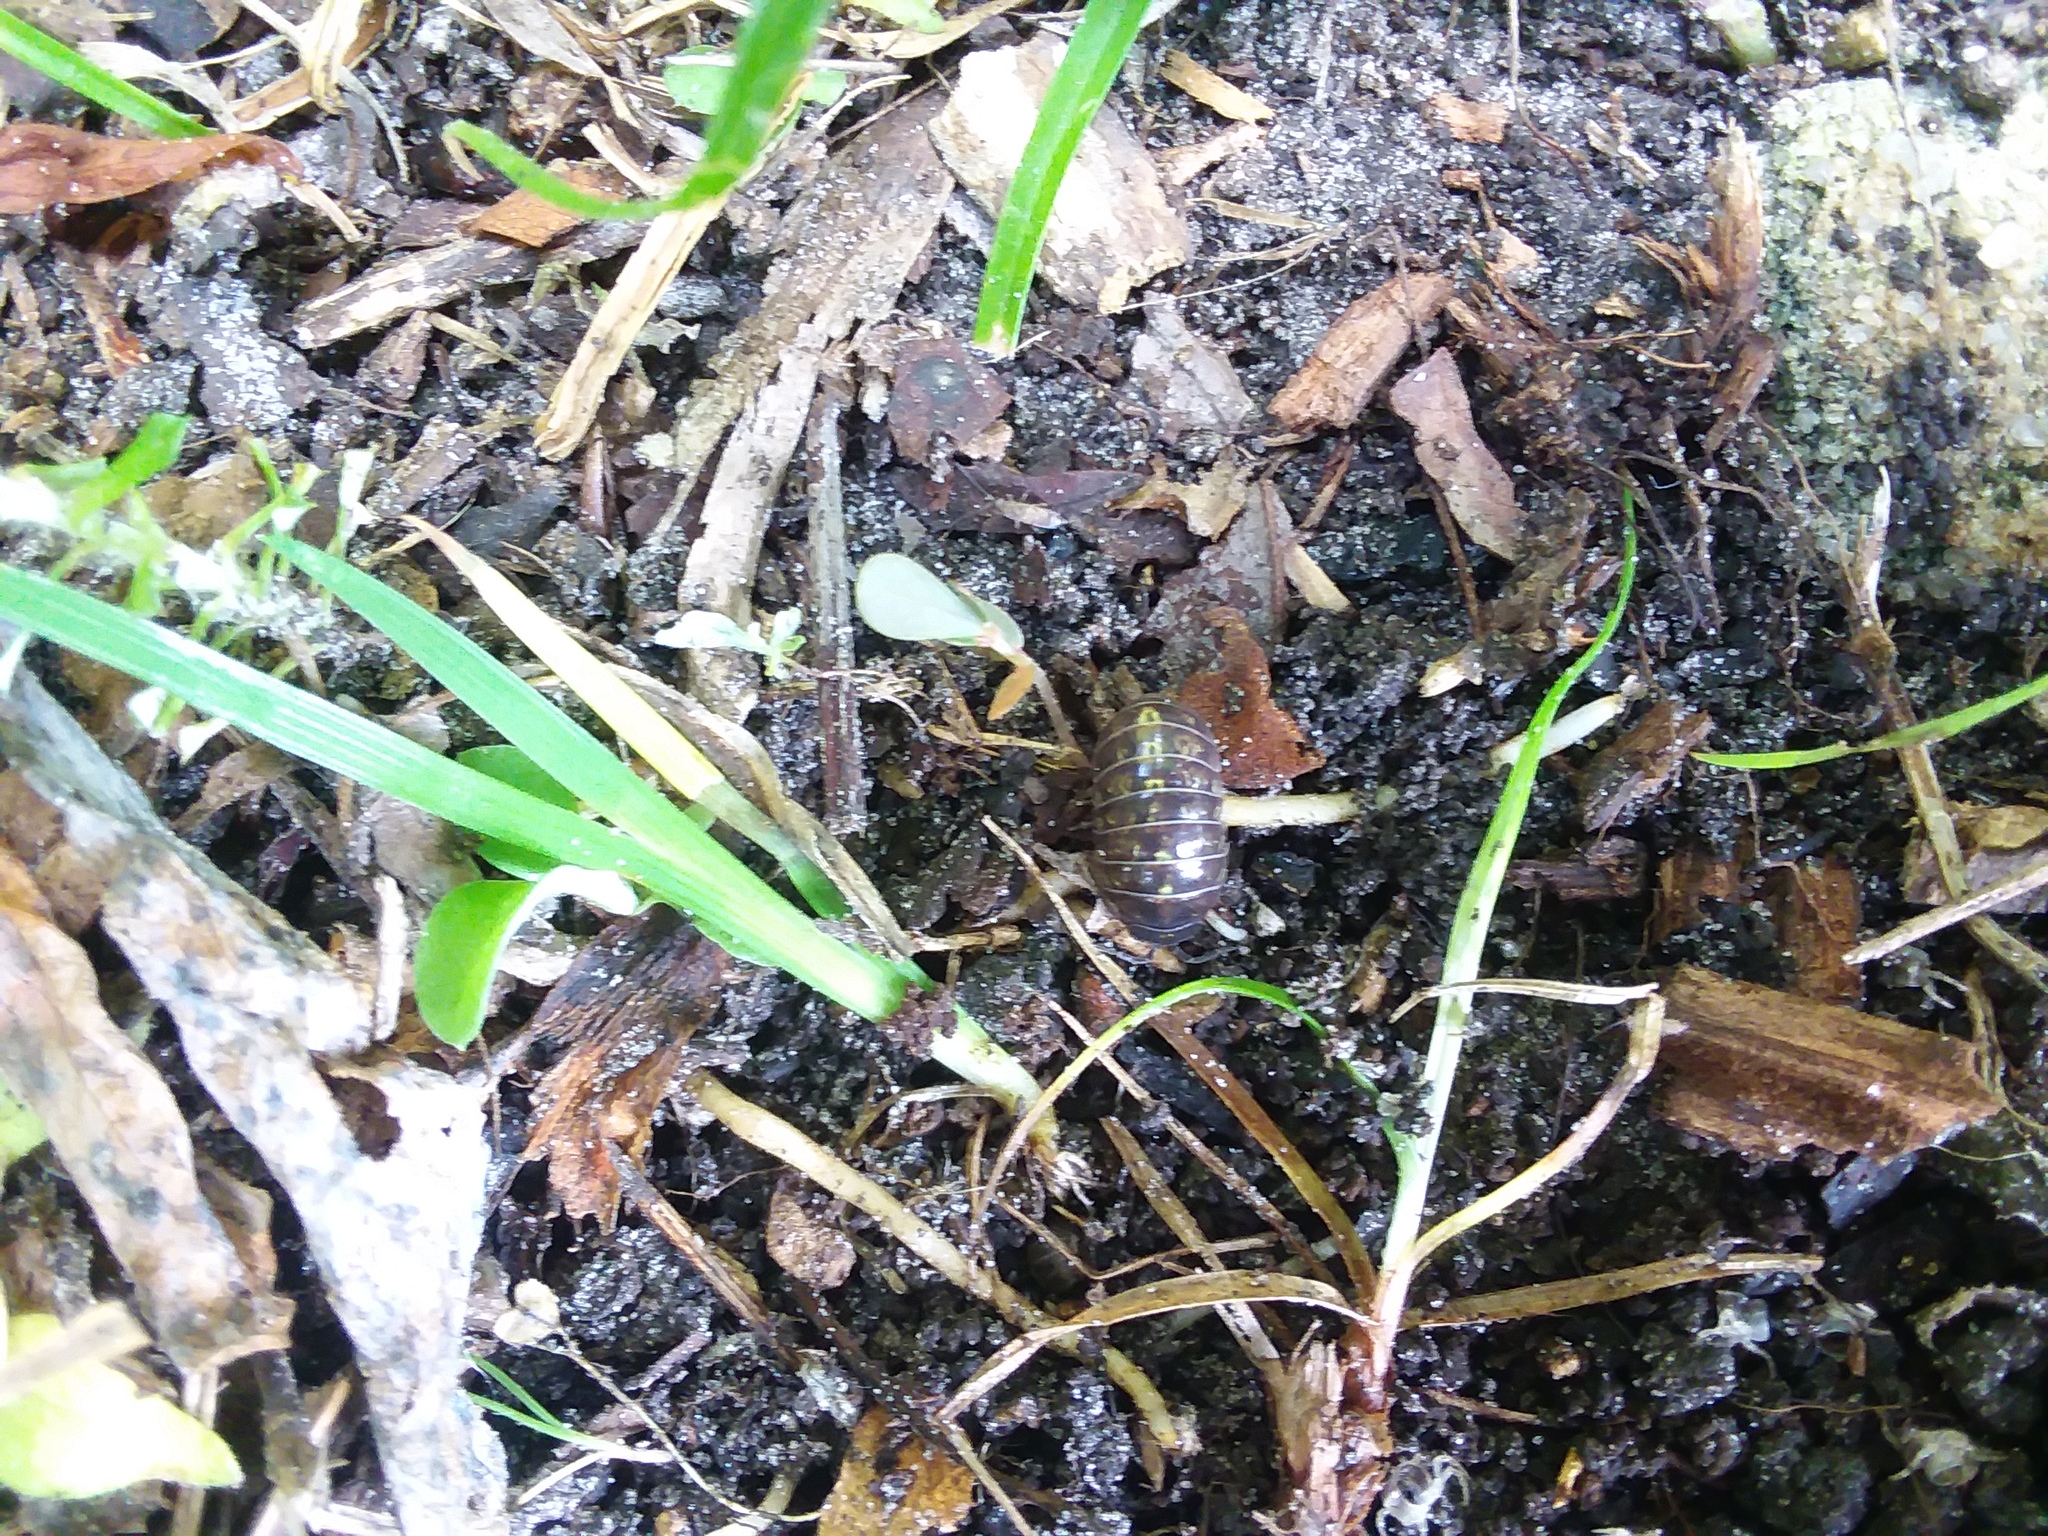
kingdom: Animalia
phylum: Arthropoda
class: Malacostraca
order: Isopoda
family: Armadillidiidae
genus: Armadillidium
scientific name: Armadillidium vulgare
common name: Common pill woodlouse
